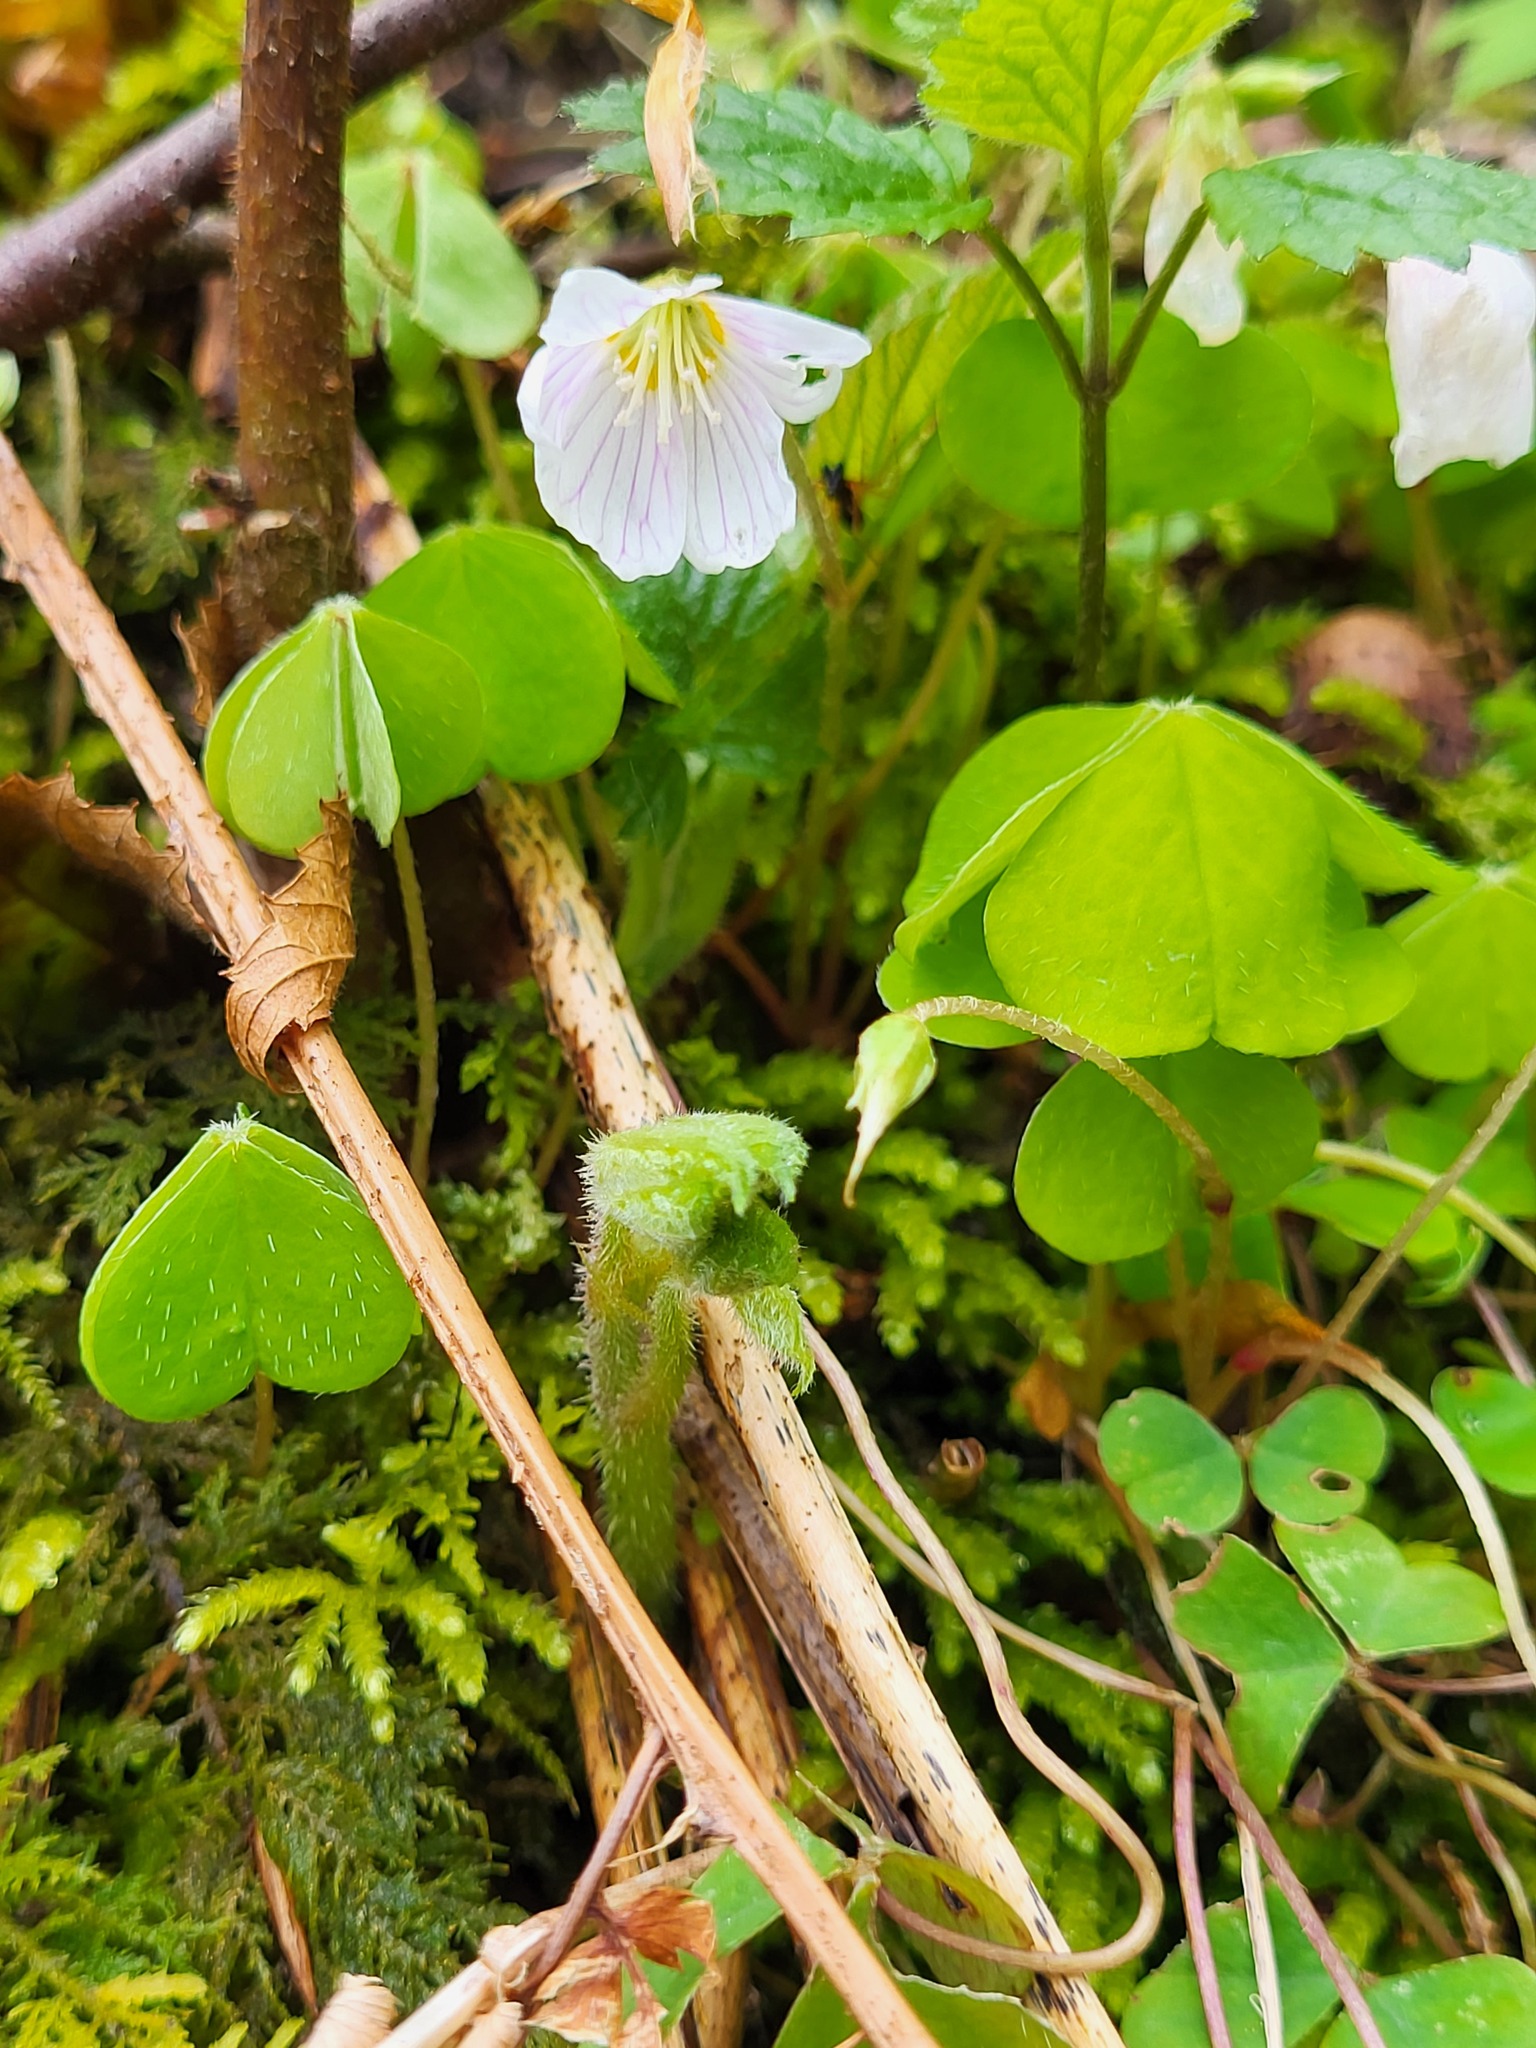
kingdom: Plantae
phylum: Tracheophyta
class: Magnoliopsida
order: Oxalidales
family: Oxalidaceae
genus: Oxalis
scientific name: Oxalis acetosella
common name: Wood-sorrel
